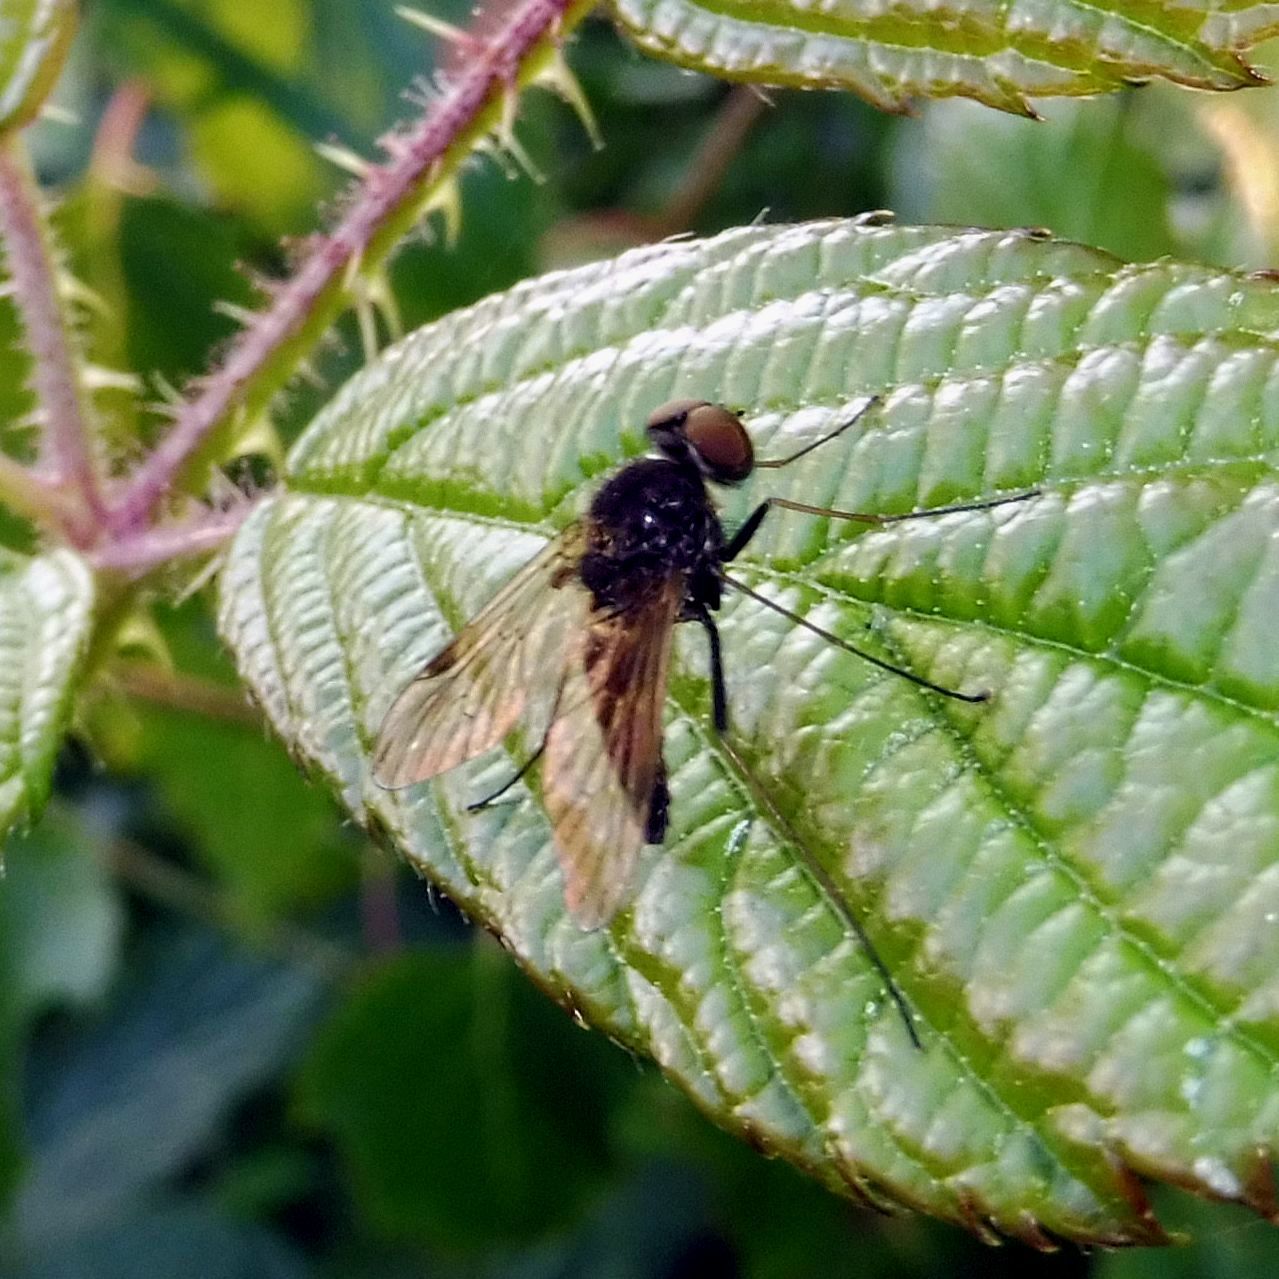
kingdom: Animalia
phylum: Arthropoda
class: Insecta
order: Diptera
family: Rhagionidae
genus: Chrysopilus
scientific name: Chrysopilus cristatus
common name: Black snipefly
